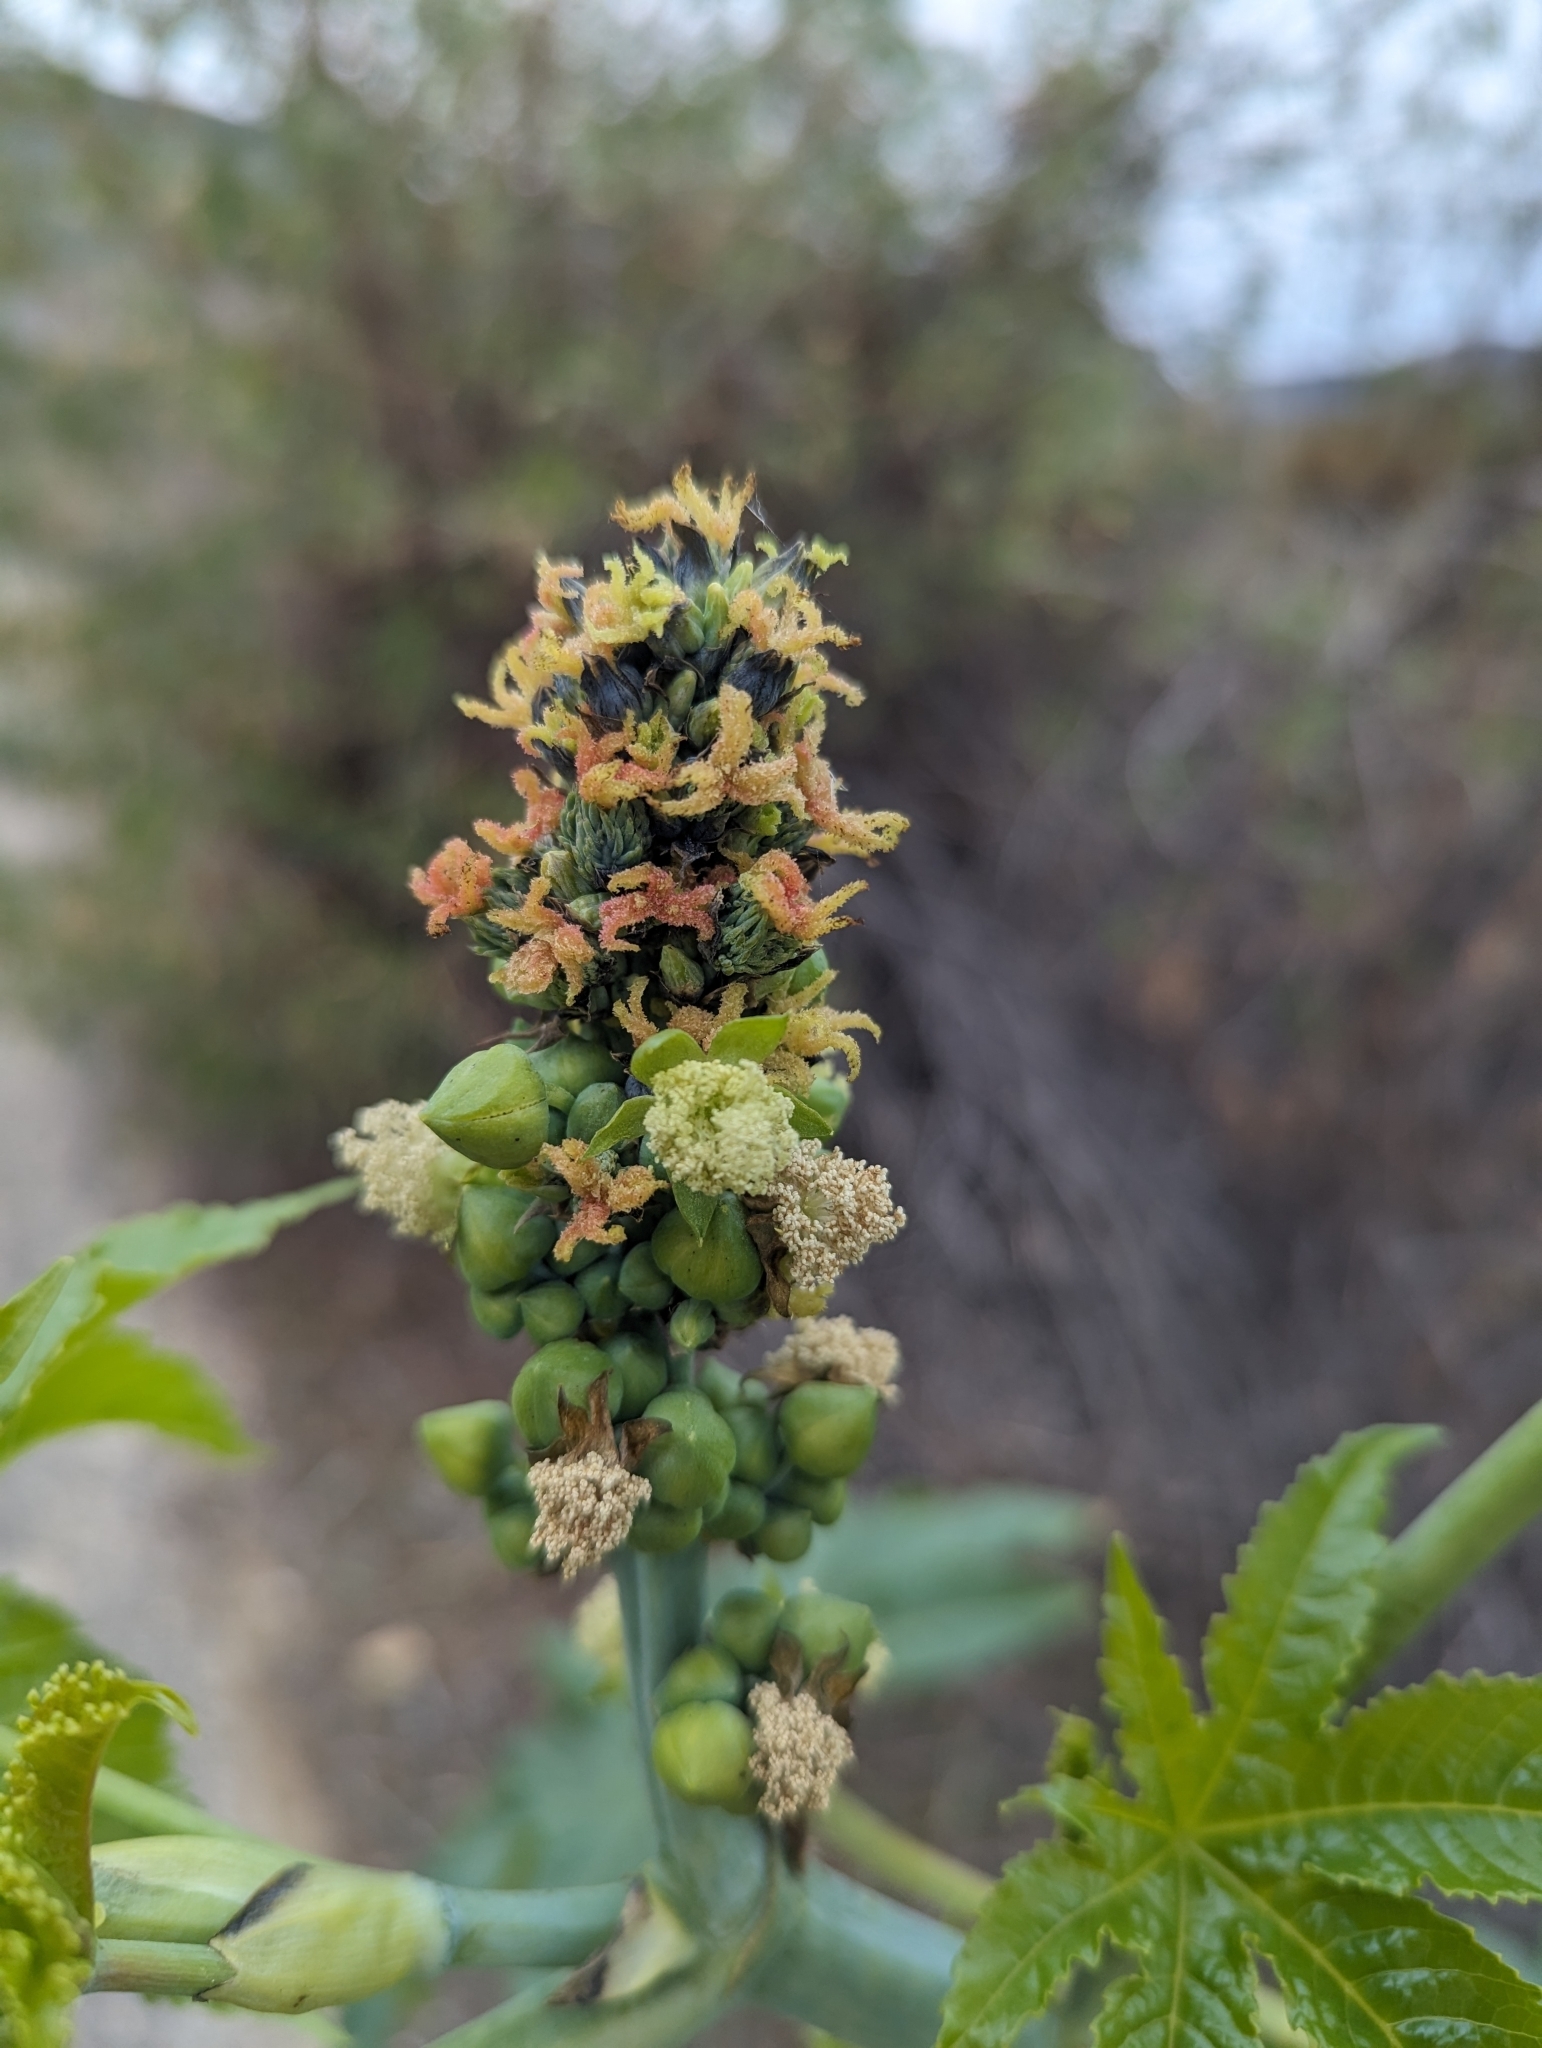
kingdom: Plantae
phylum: Tracheophyta
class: Magnoliopsida
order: Malpighiales
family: Euphorbiaceae
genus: Ricinus
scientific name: Ricinus communis
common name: Castor-oil-plant
